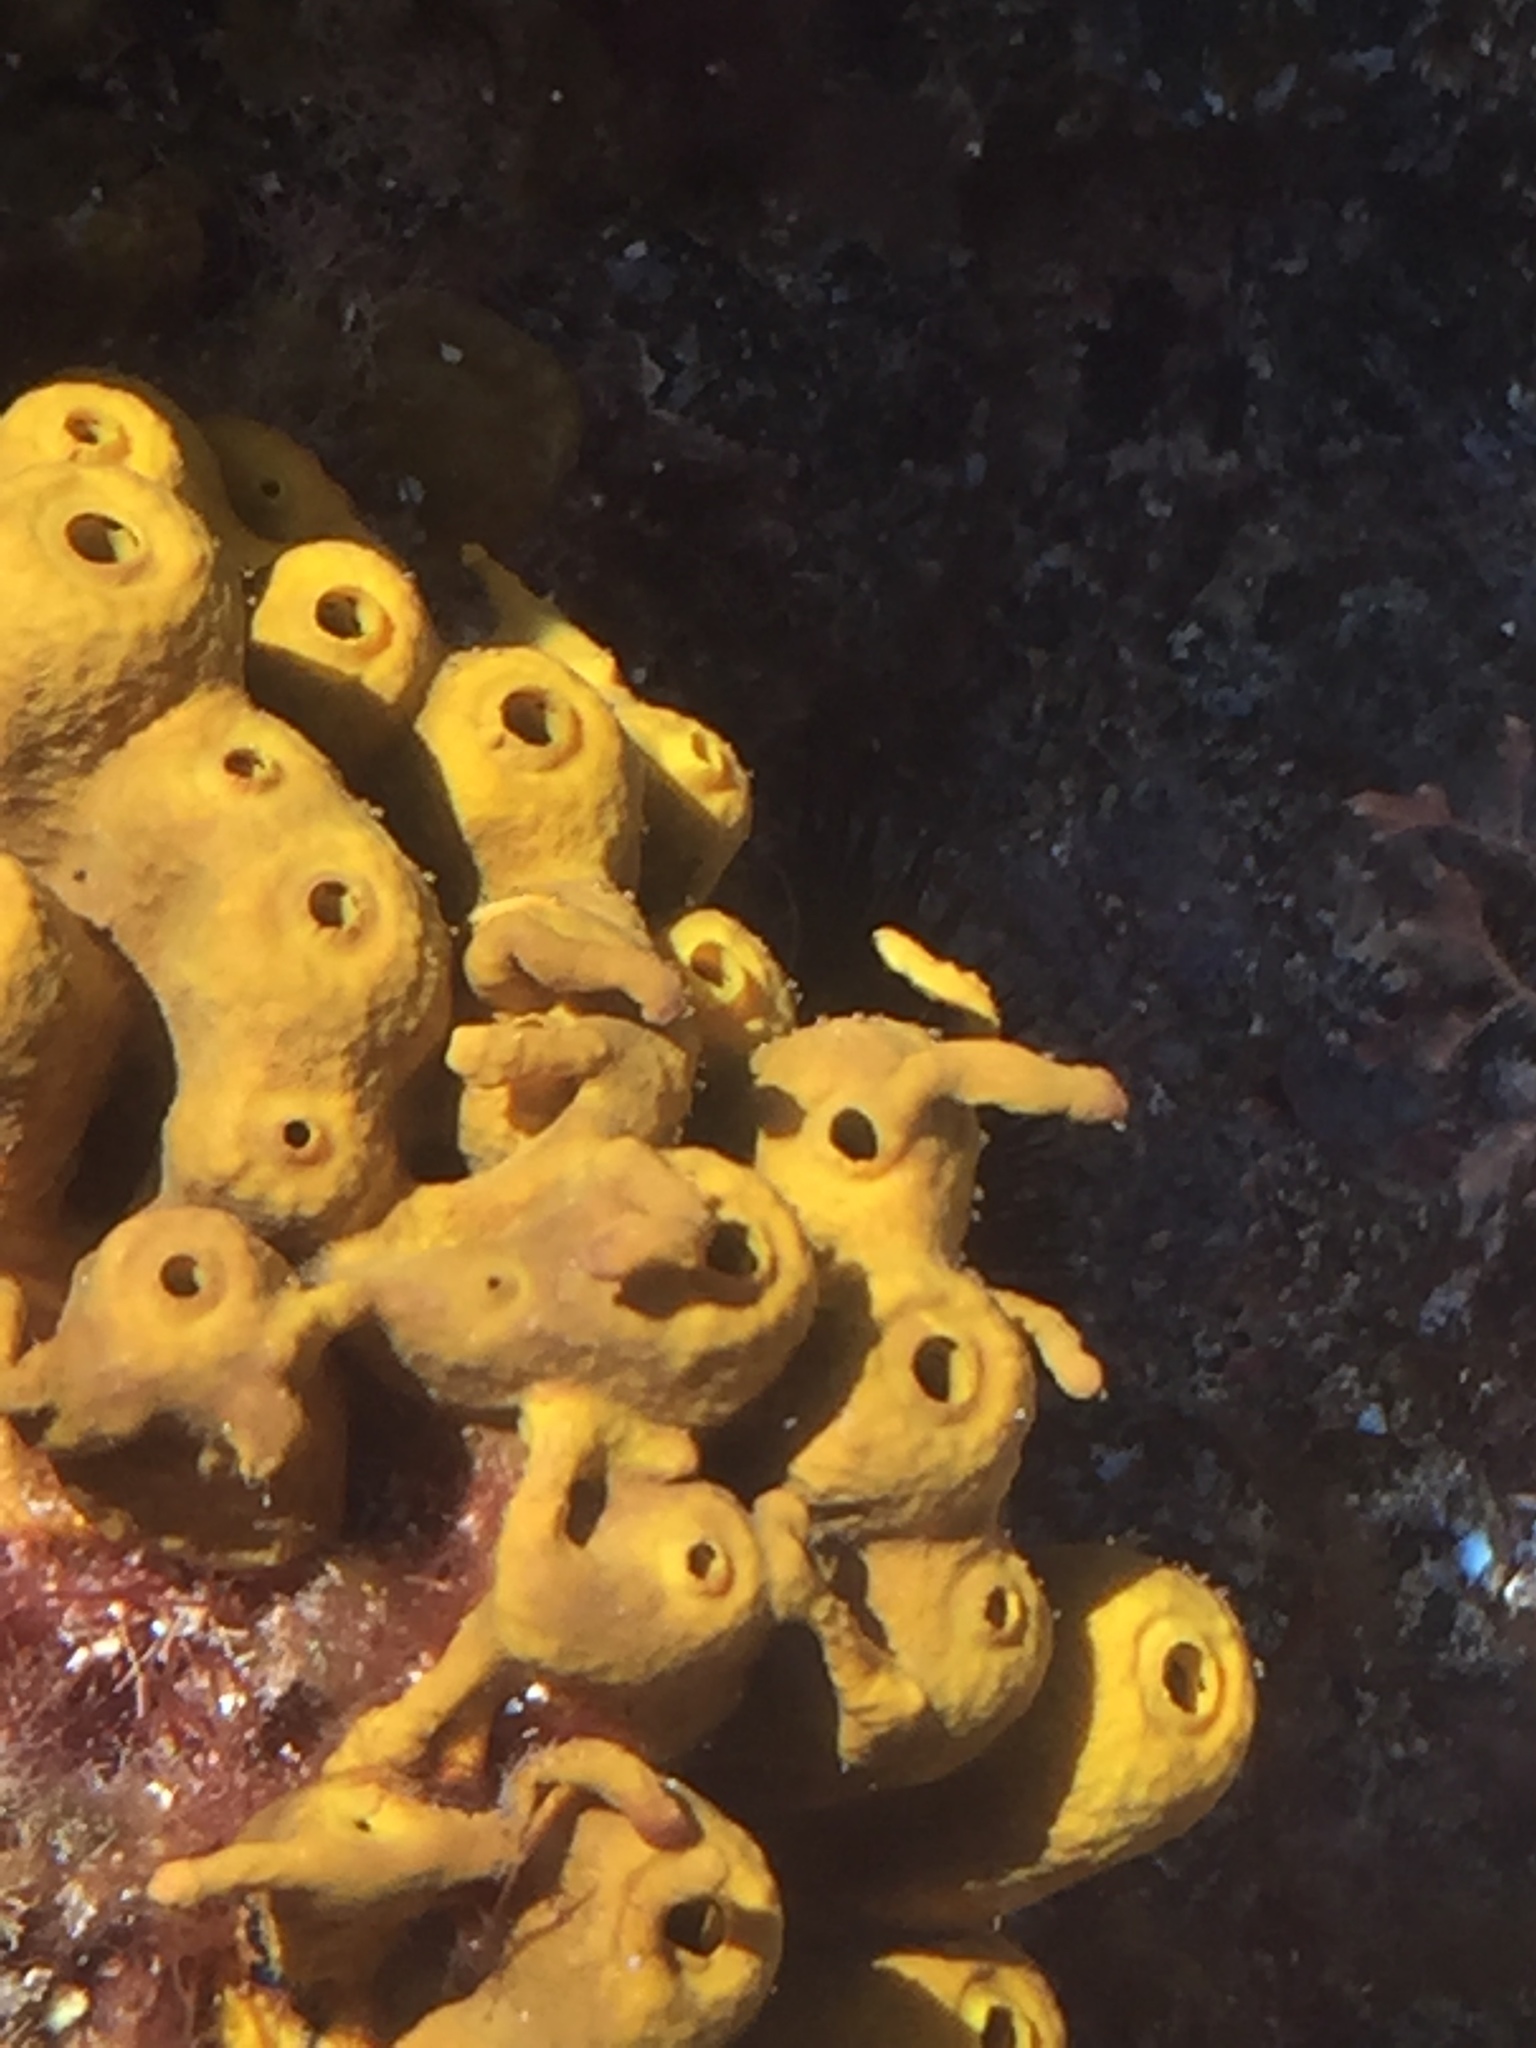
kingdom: Animalia
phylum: Porifera
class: Demospongiae
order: Verongiida
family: Aplysinidae
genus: Aplysina
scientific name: Aplysina aerophoba
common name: Aureate sponge
